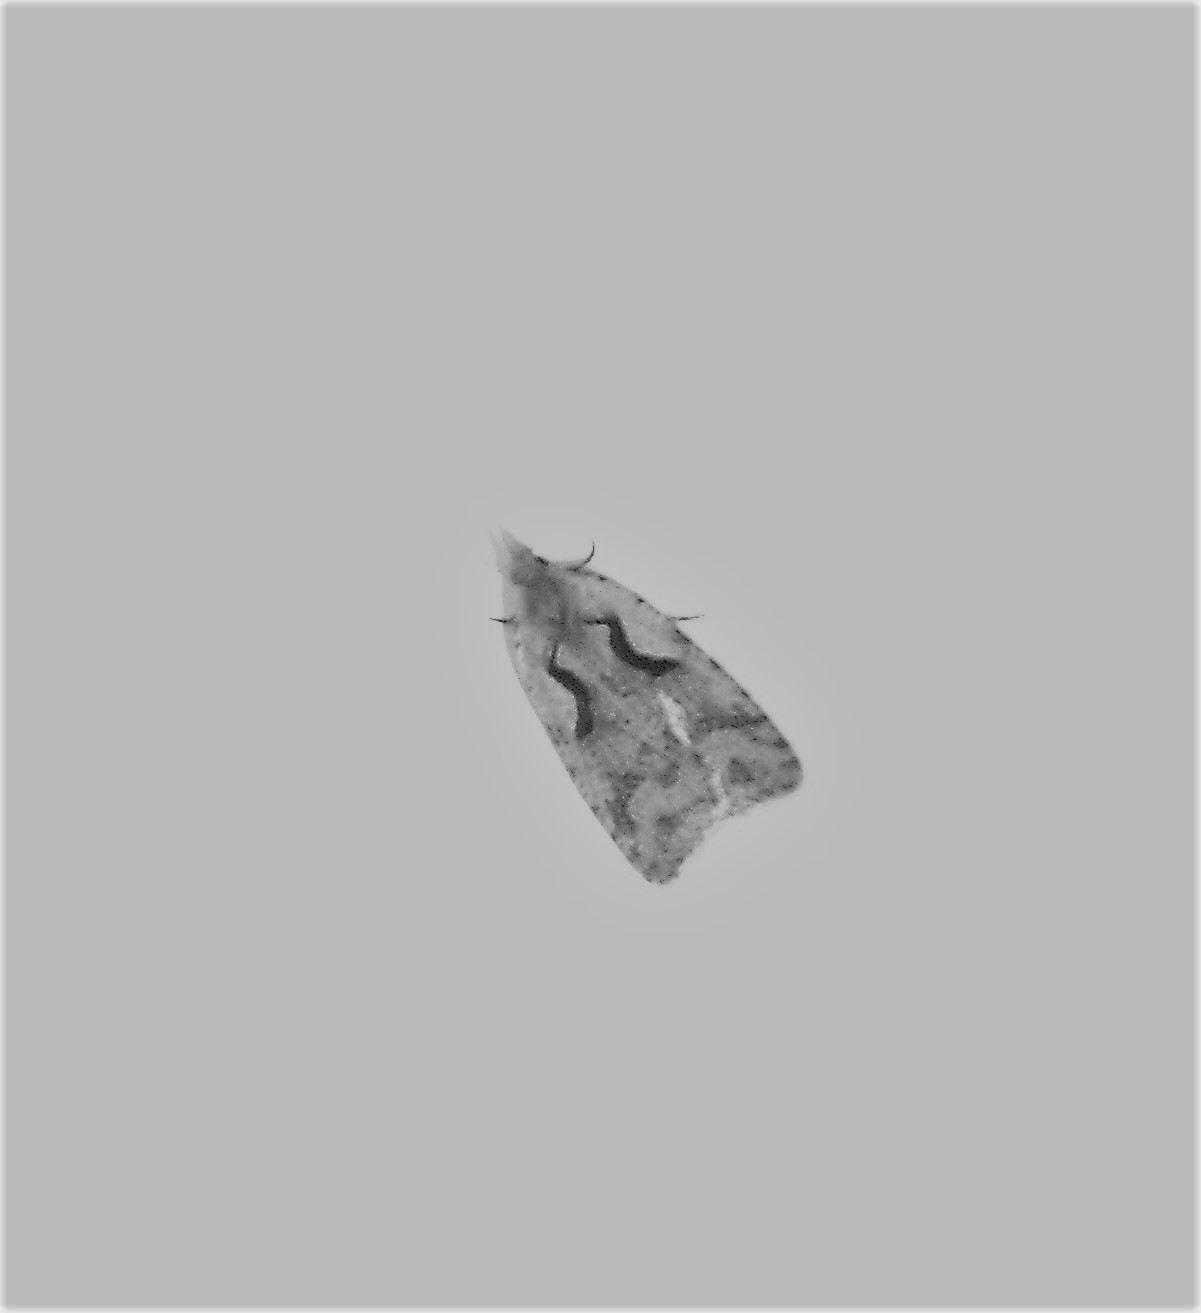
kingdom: Animalia
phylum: Arthropoda
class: Insecta
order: Lepidoptera
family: Tortricidae
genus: Cnephasia
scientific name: Cnephasia jactatana
